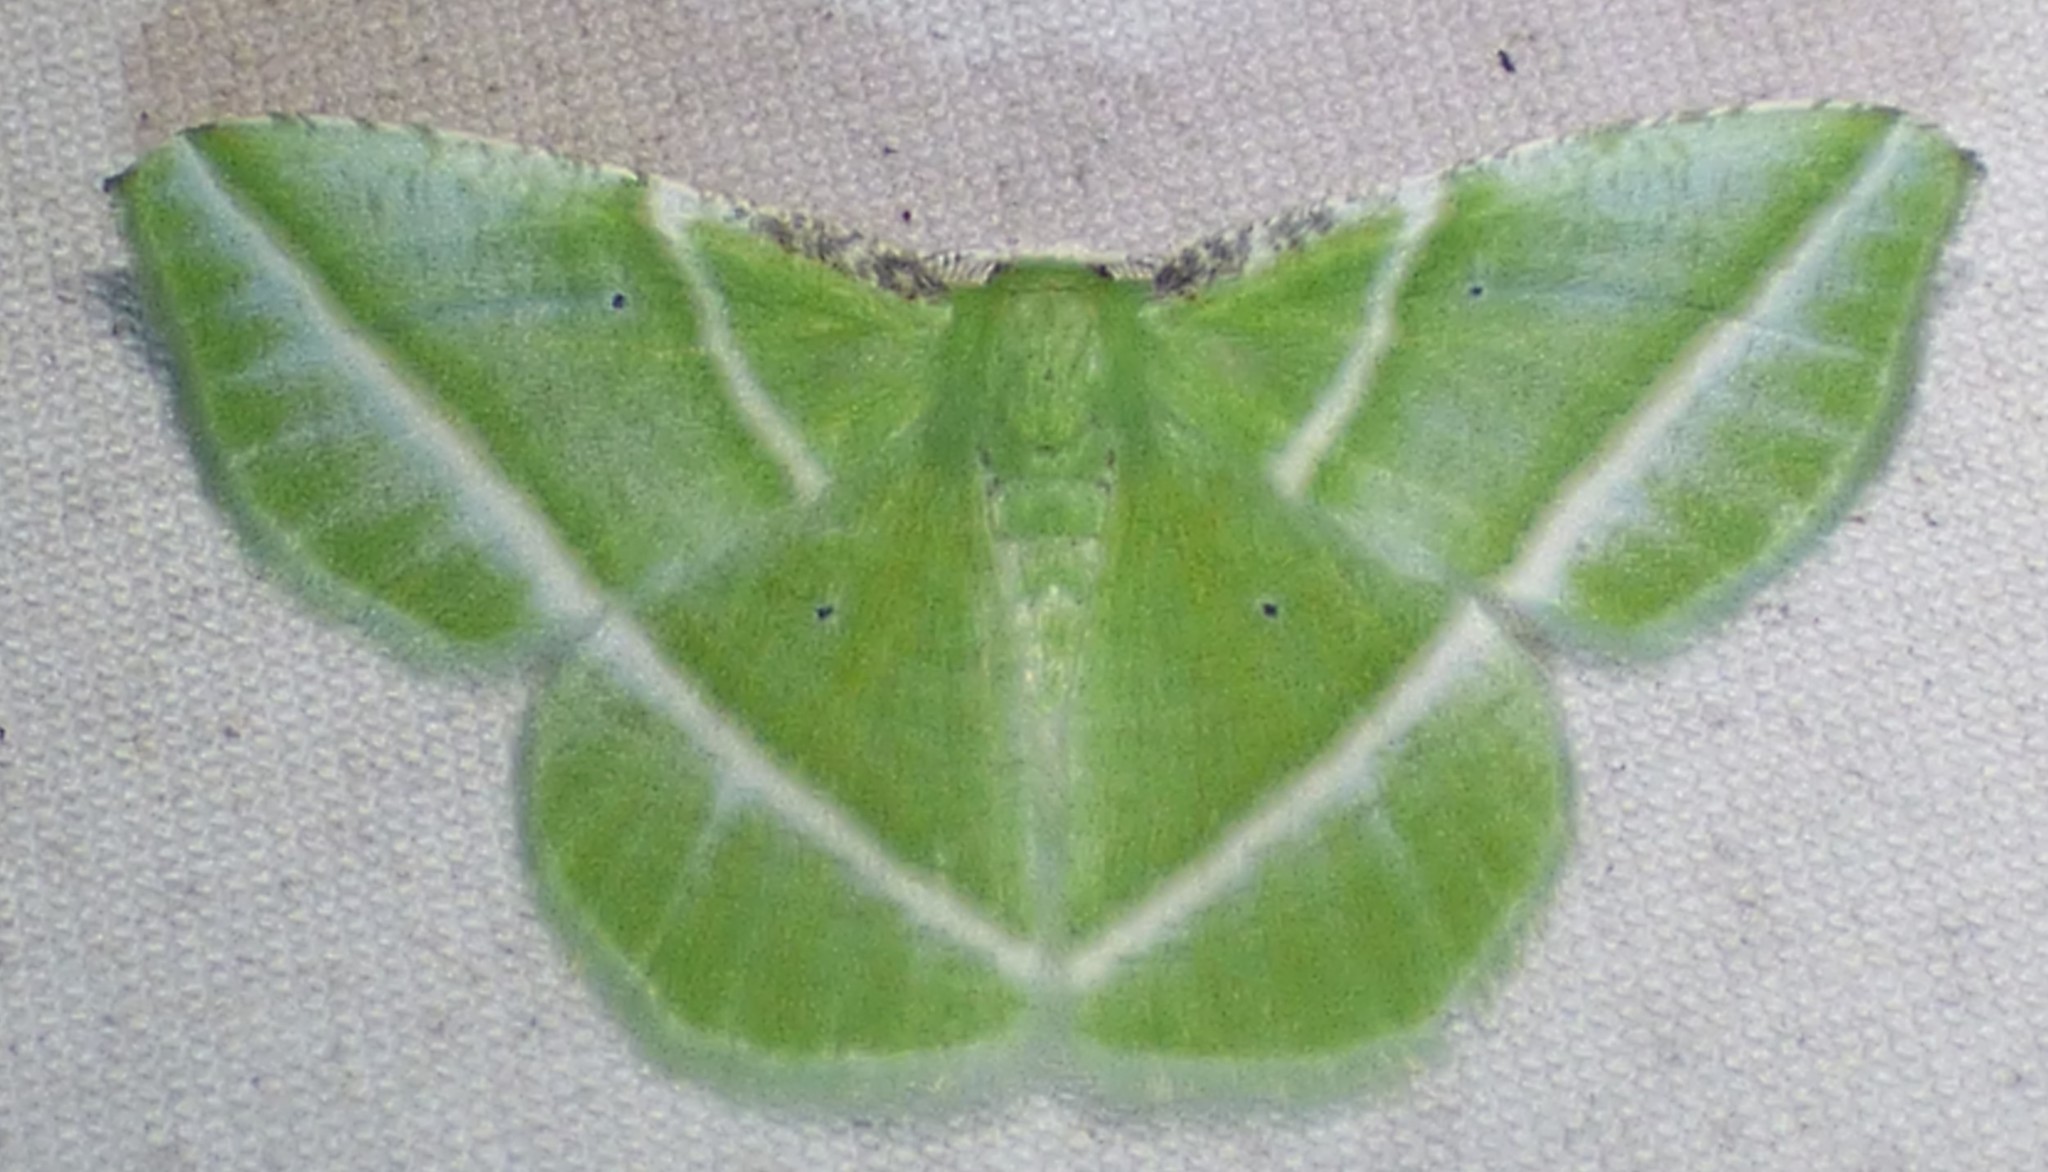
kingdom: Animalia
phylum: Arthropoda
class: Insecta
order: Lepidoptera
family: Geometridae
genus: Dichorda
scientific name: Dichorda iridaria
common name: Showy emerald
